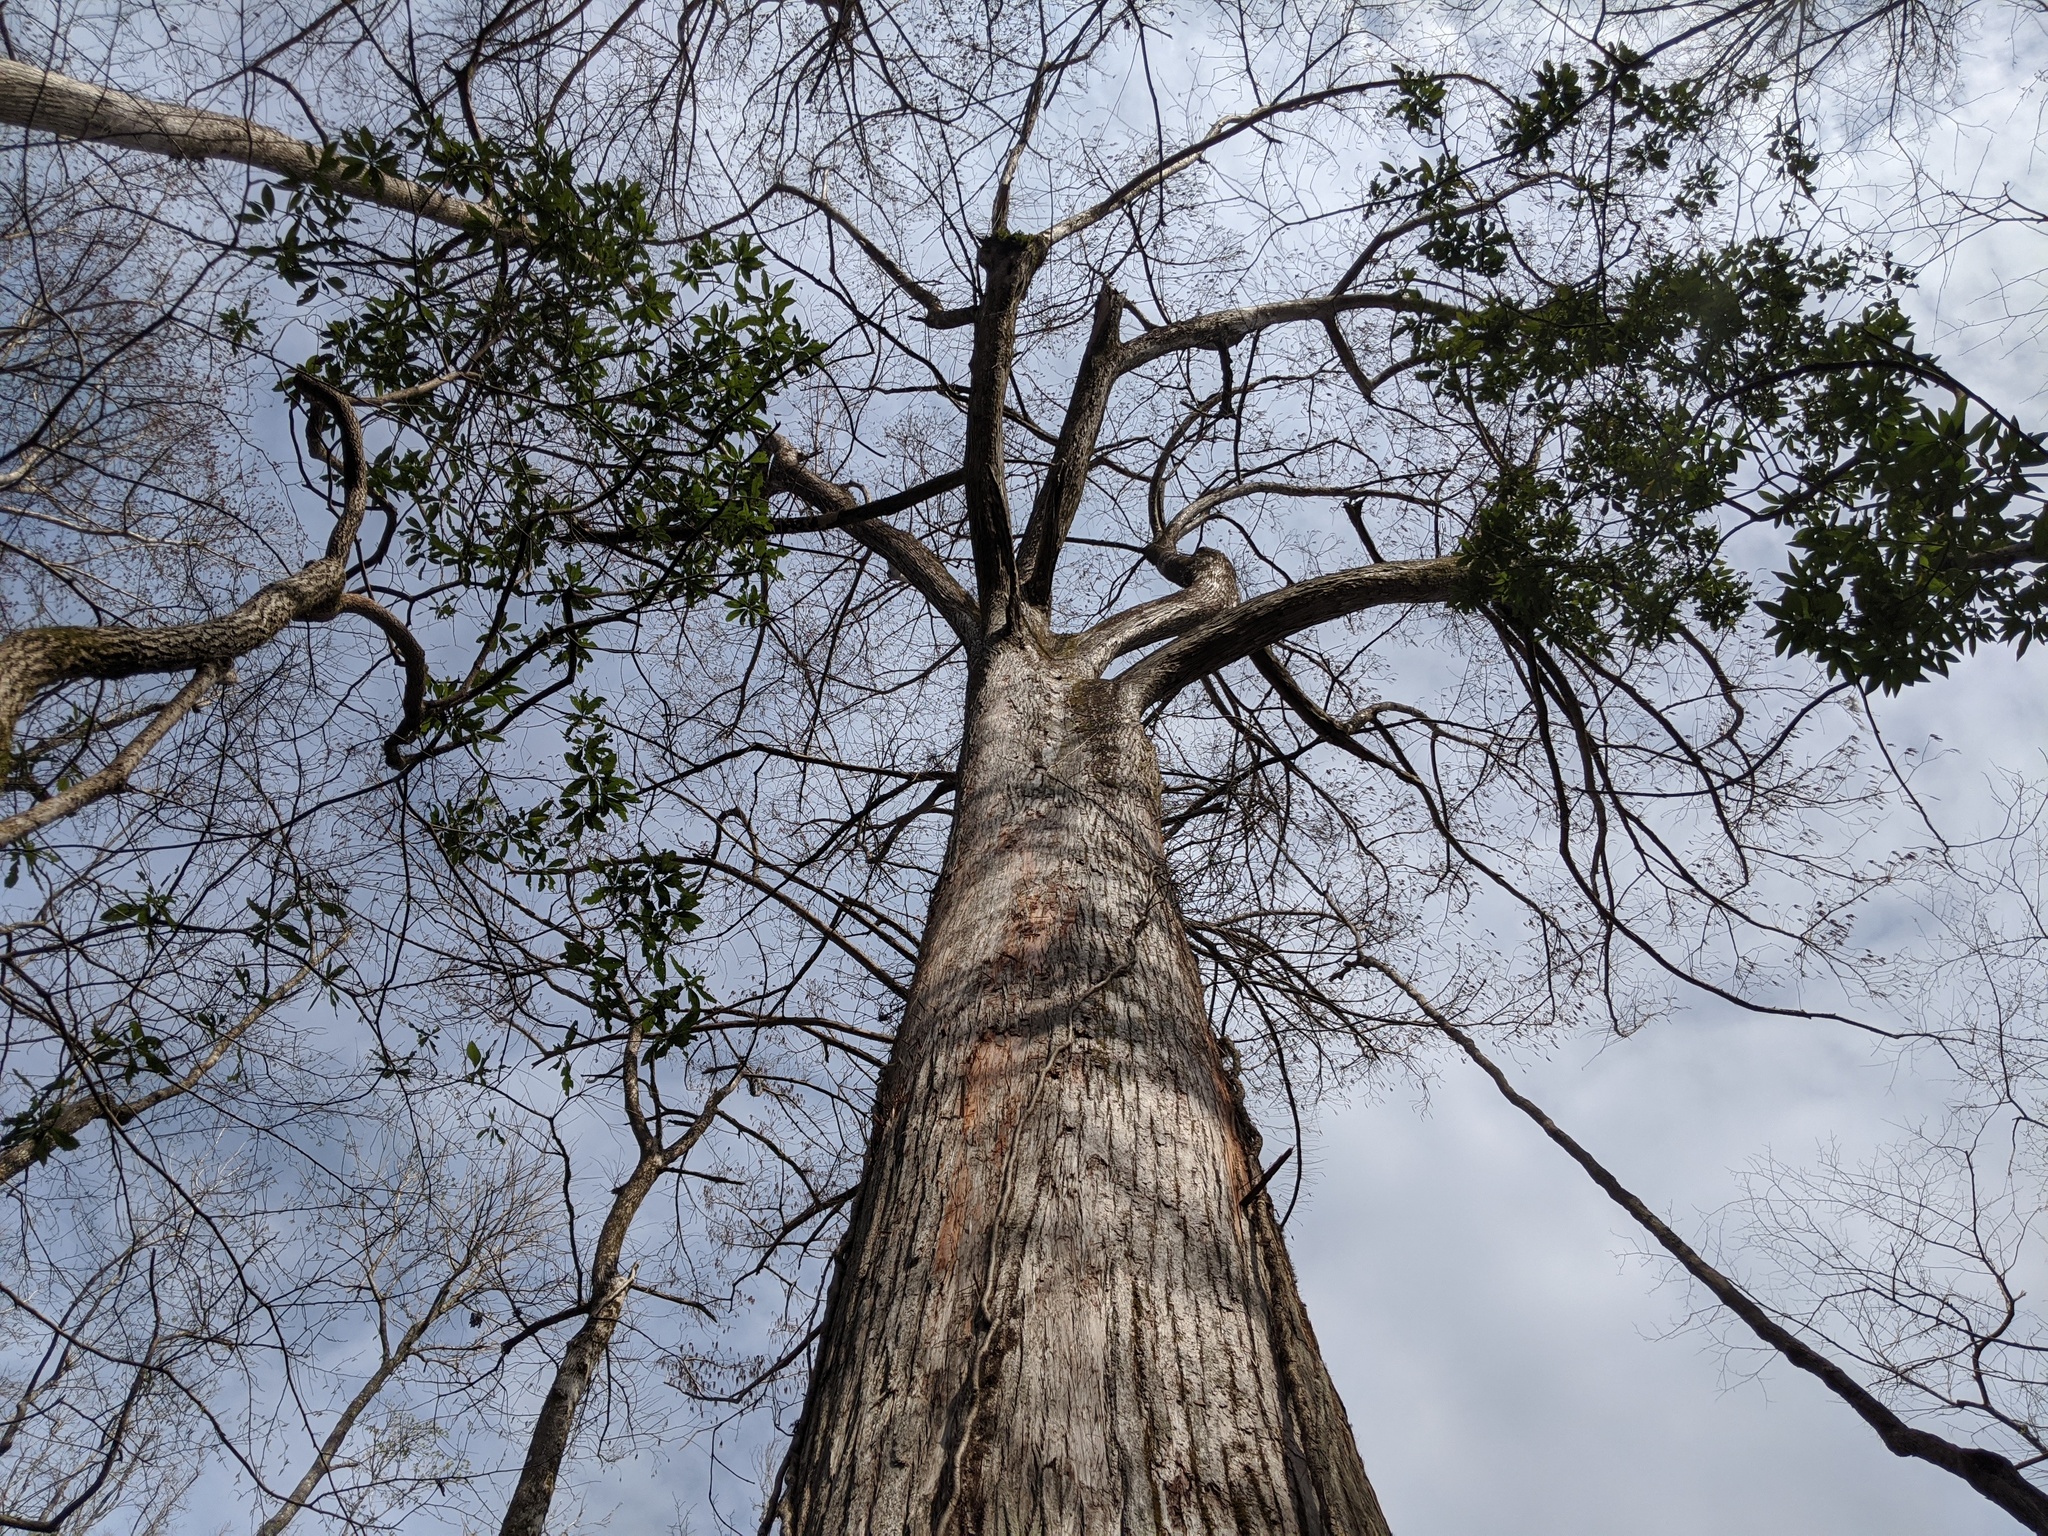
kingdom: Plantae
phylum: Tracheophyta
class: Pinopsida
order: Pinales
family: Cupressaceae
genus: Taxodium
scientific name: Taxodium distichum
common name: Bald cypress
